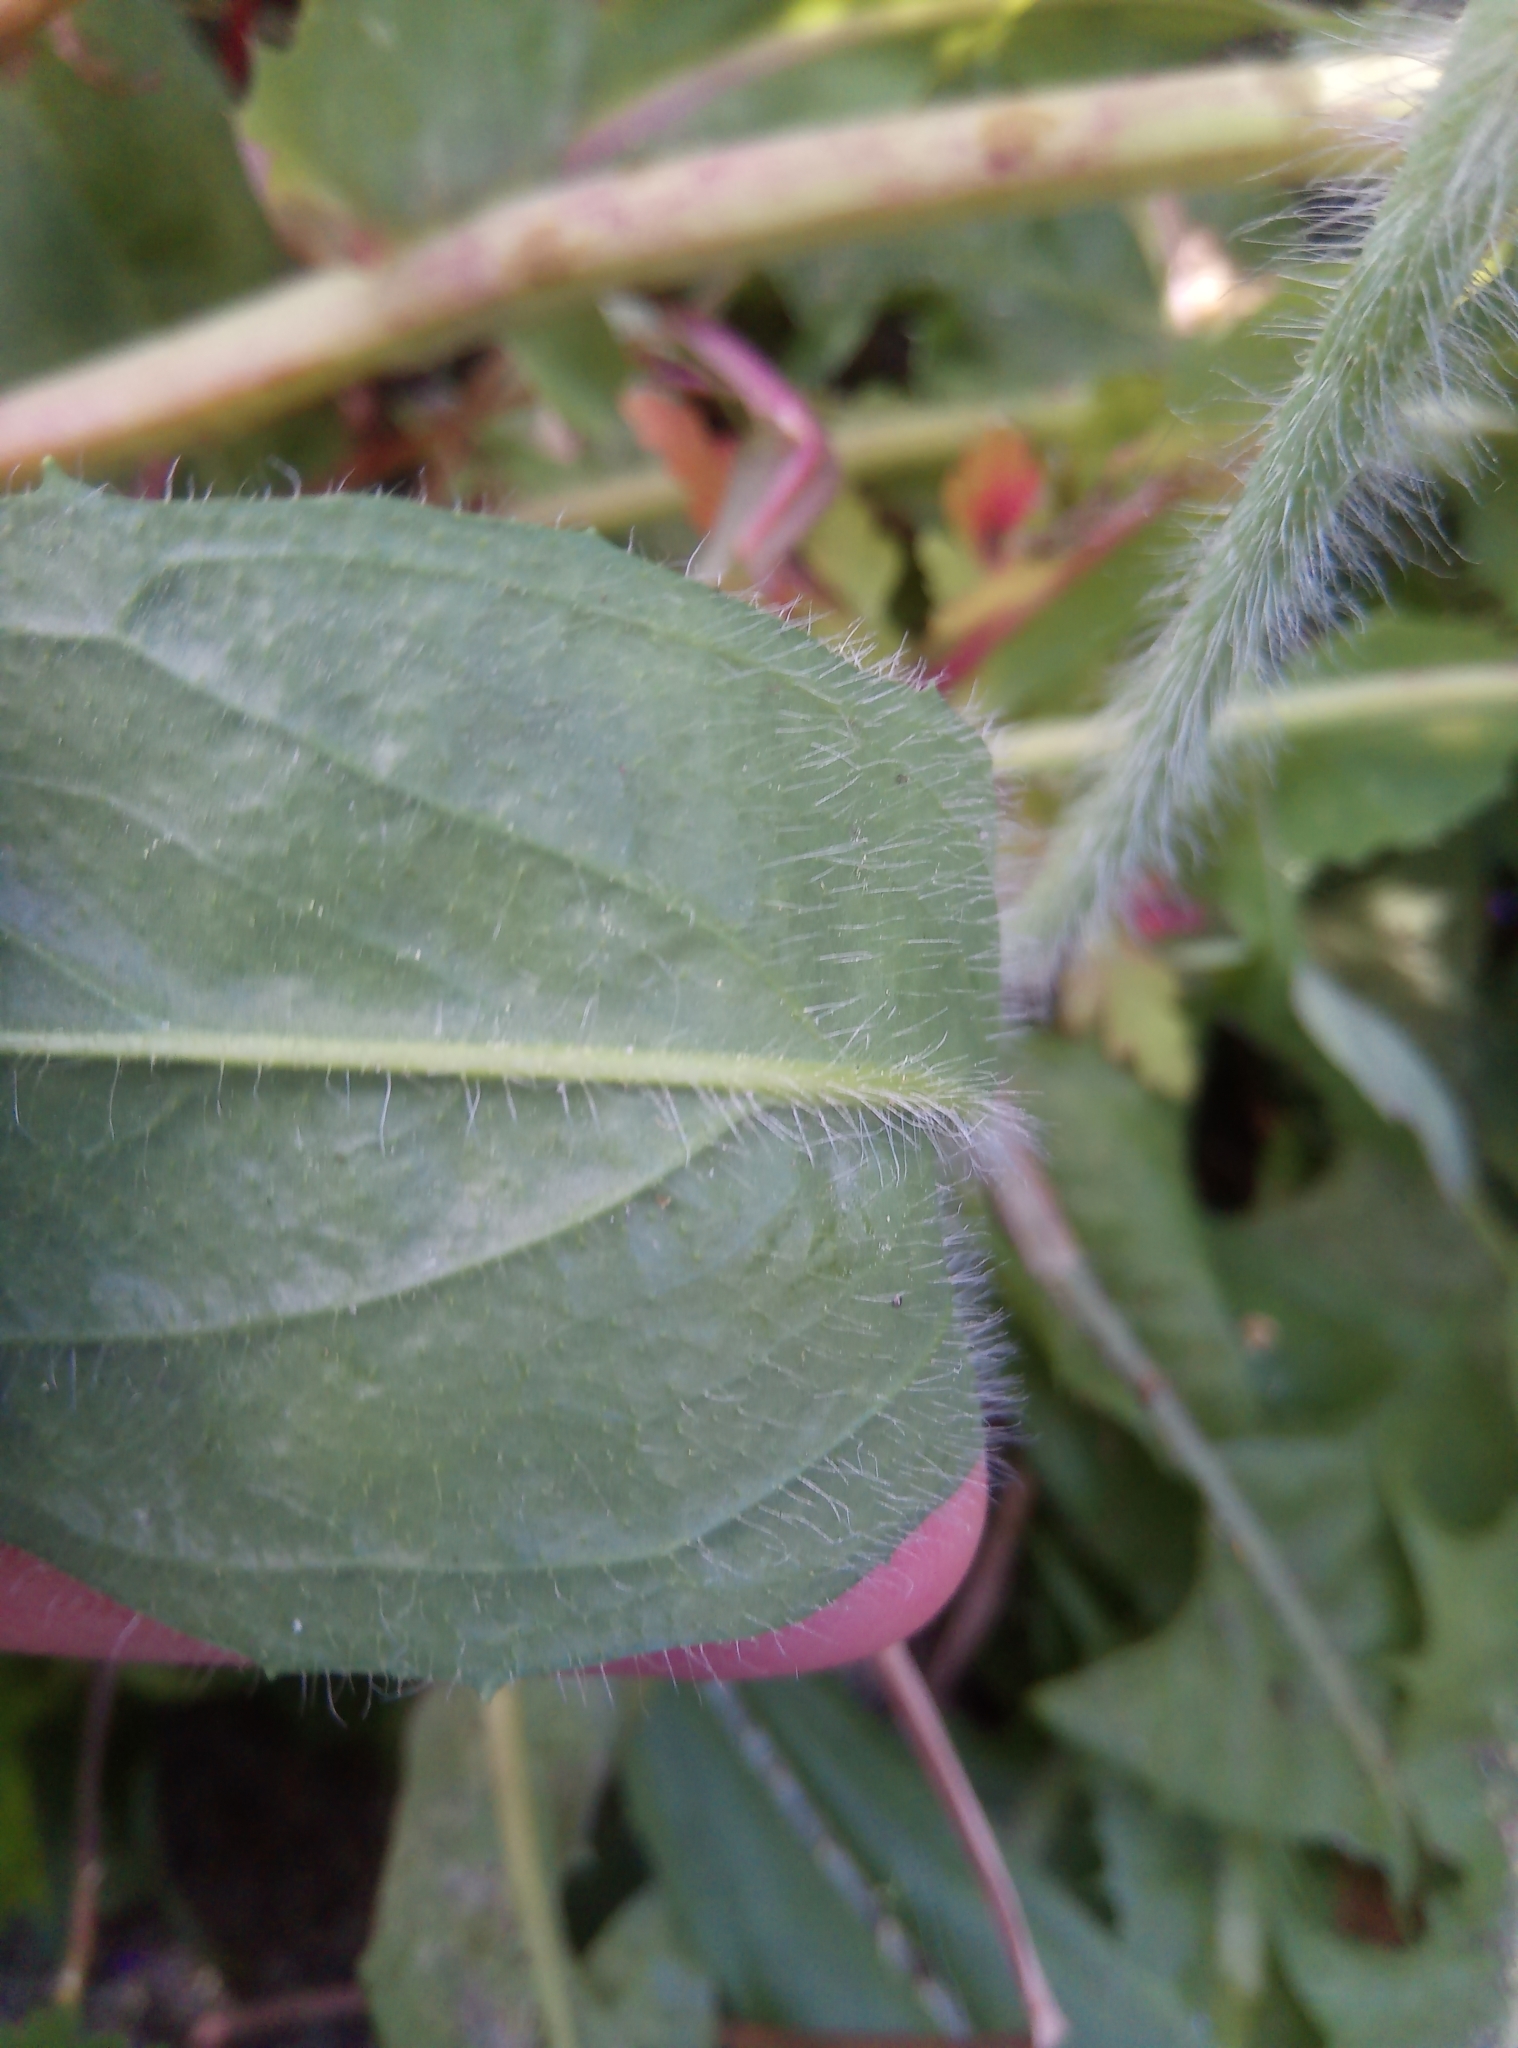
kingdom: Plantae
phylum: Tracheophyta
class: Magnoliopsida
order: Asterales
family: Asteraceae
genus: Pilosella
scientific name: Pilosella aurantiaca
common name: Fox-and-cubs
